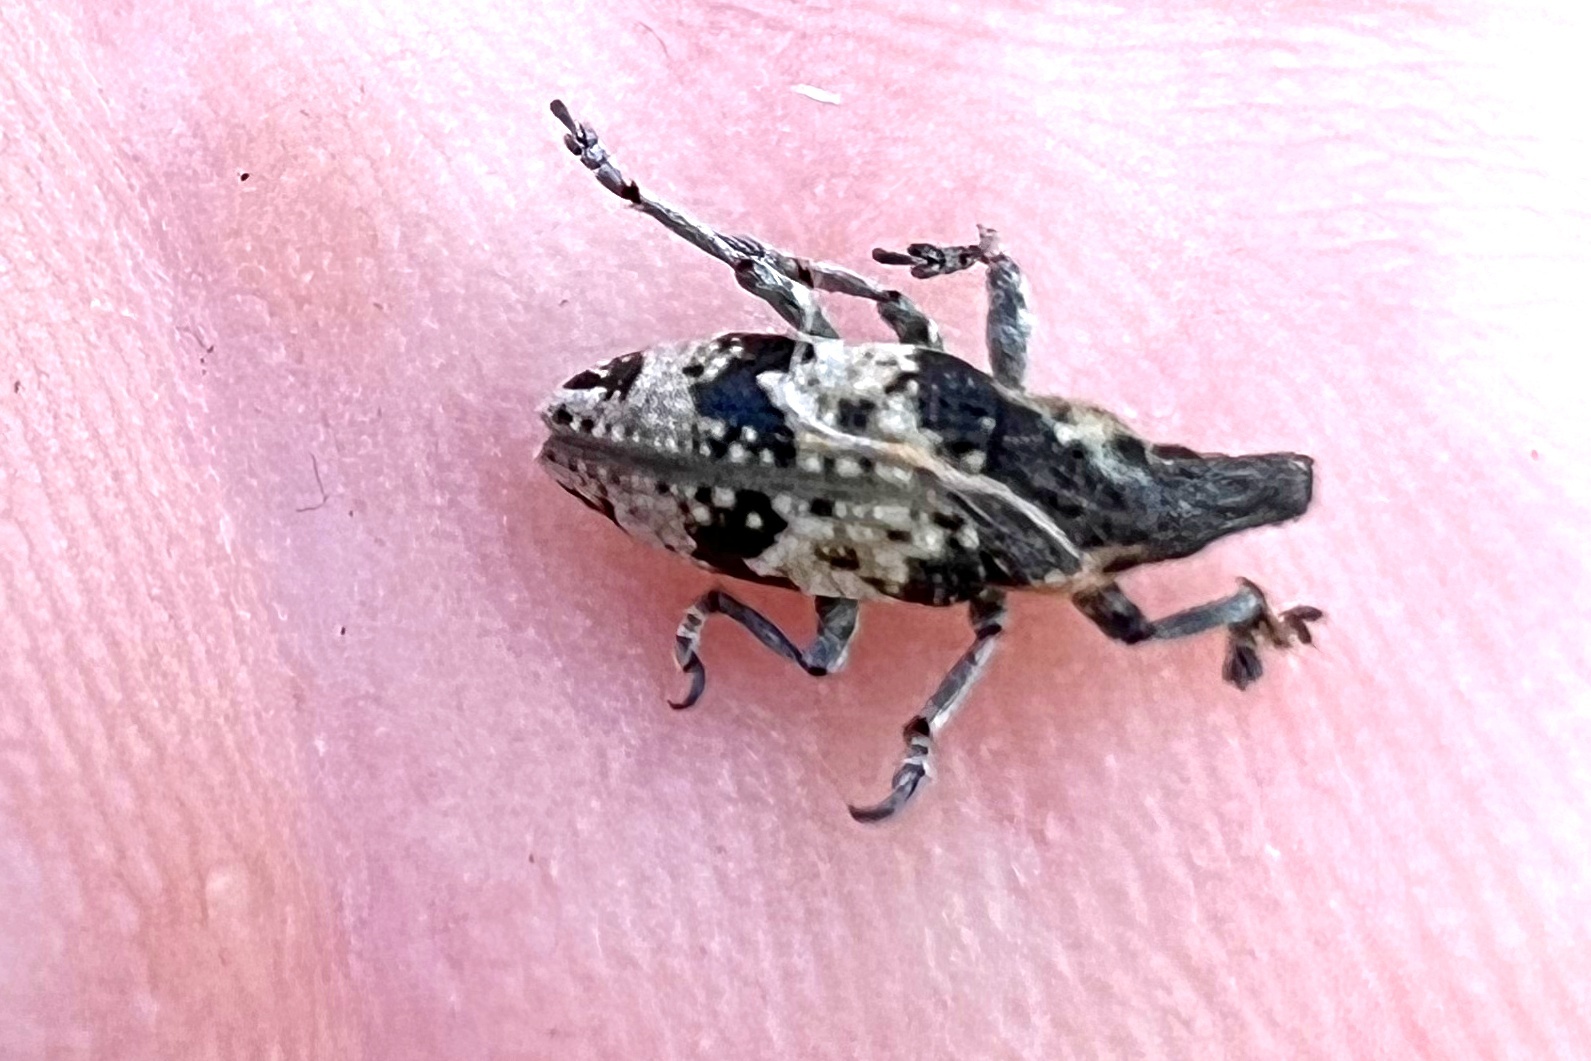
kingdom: Animalia
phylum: Arthropoda
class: Insecta
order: Coleoptera
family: Curculionidae
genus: Bothynoderes
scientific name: Bothynoderes affinis
